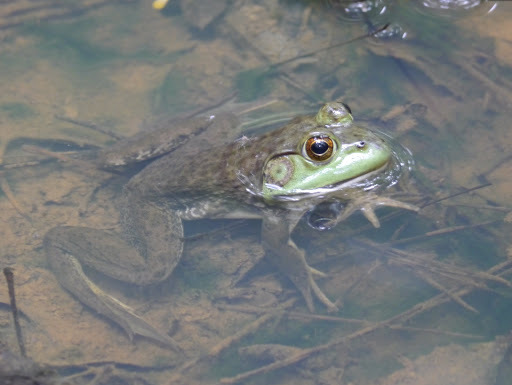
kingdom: Animalia
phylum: Chordata
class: Amphibia
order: Anura
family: Ranidae
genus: Lithobates
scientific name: Lithobates catesbeianus
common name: American bullfrog
